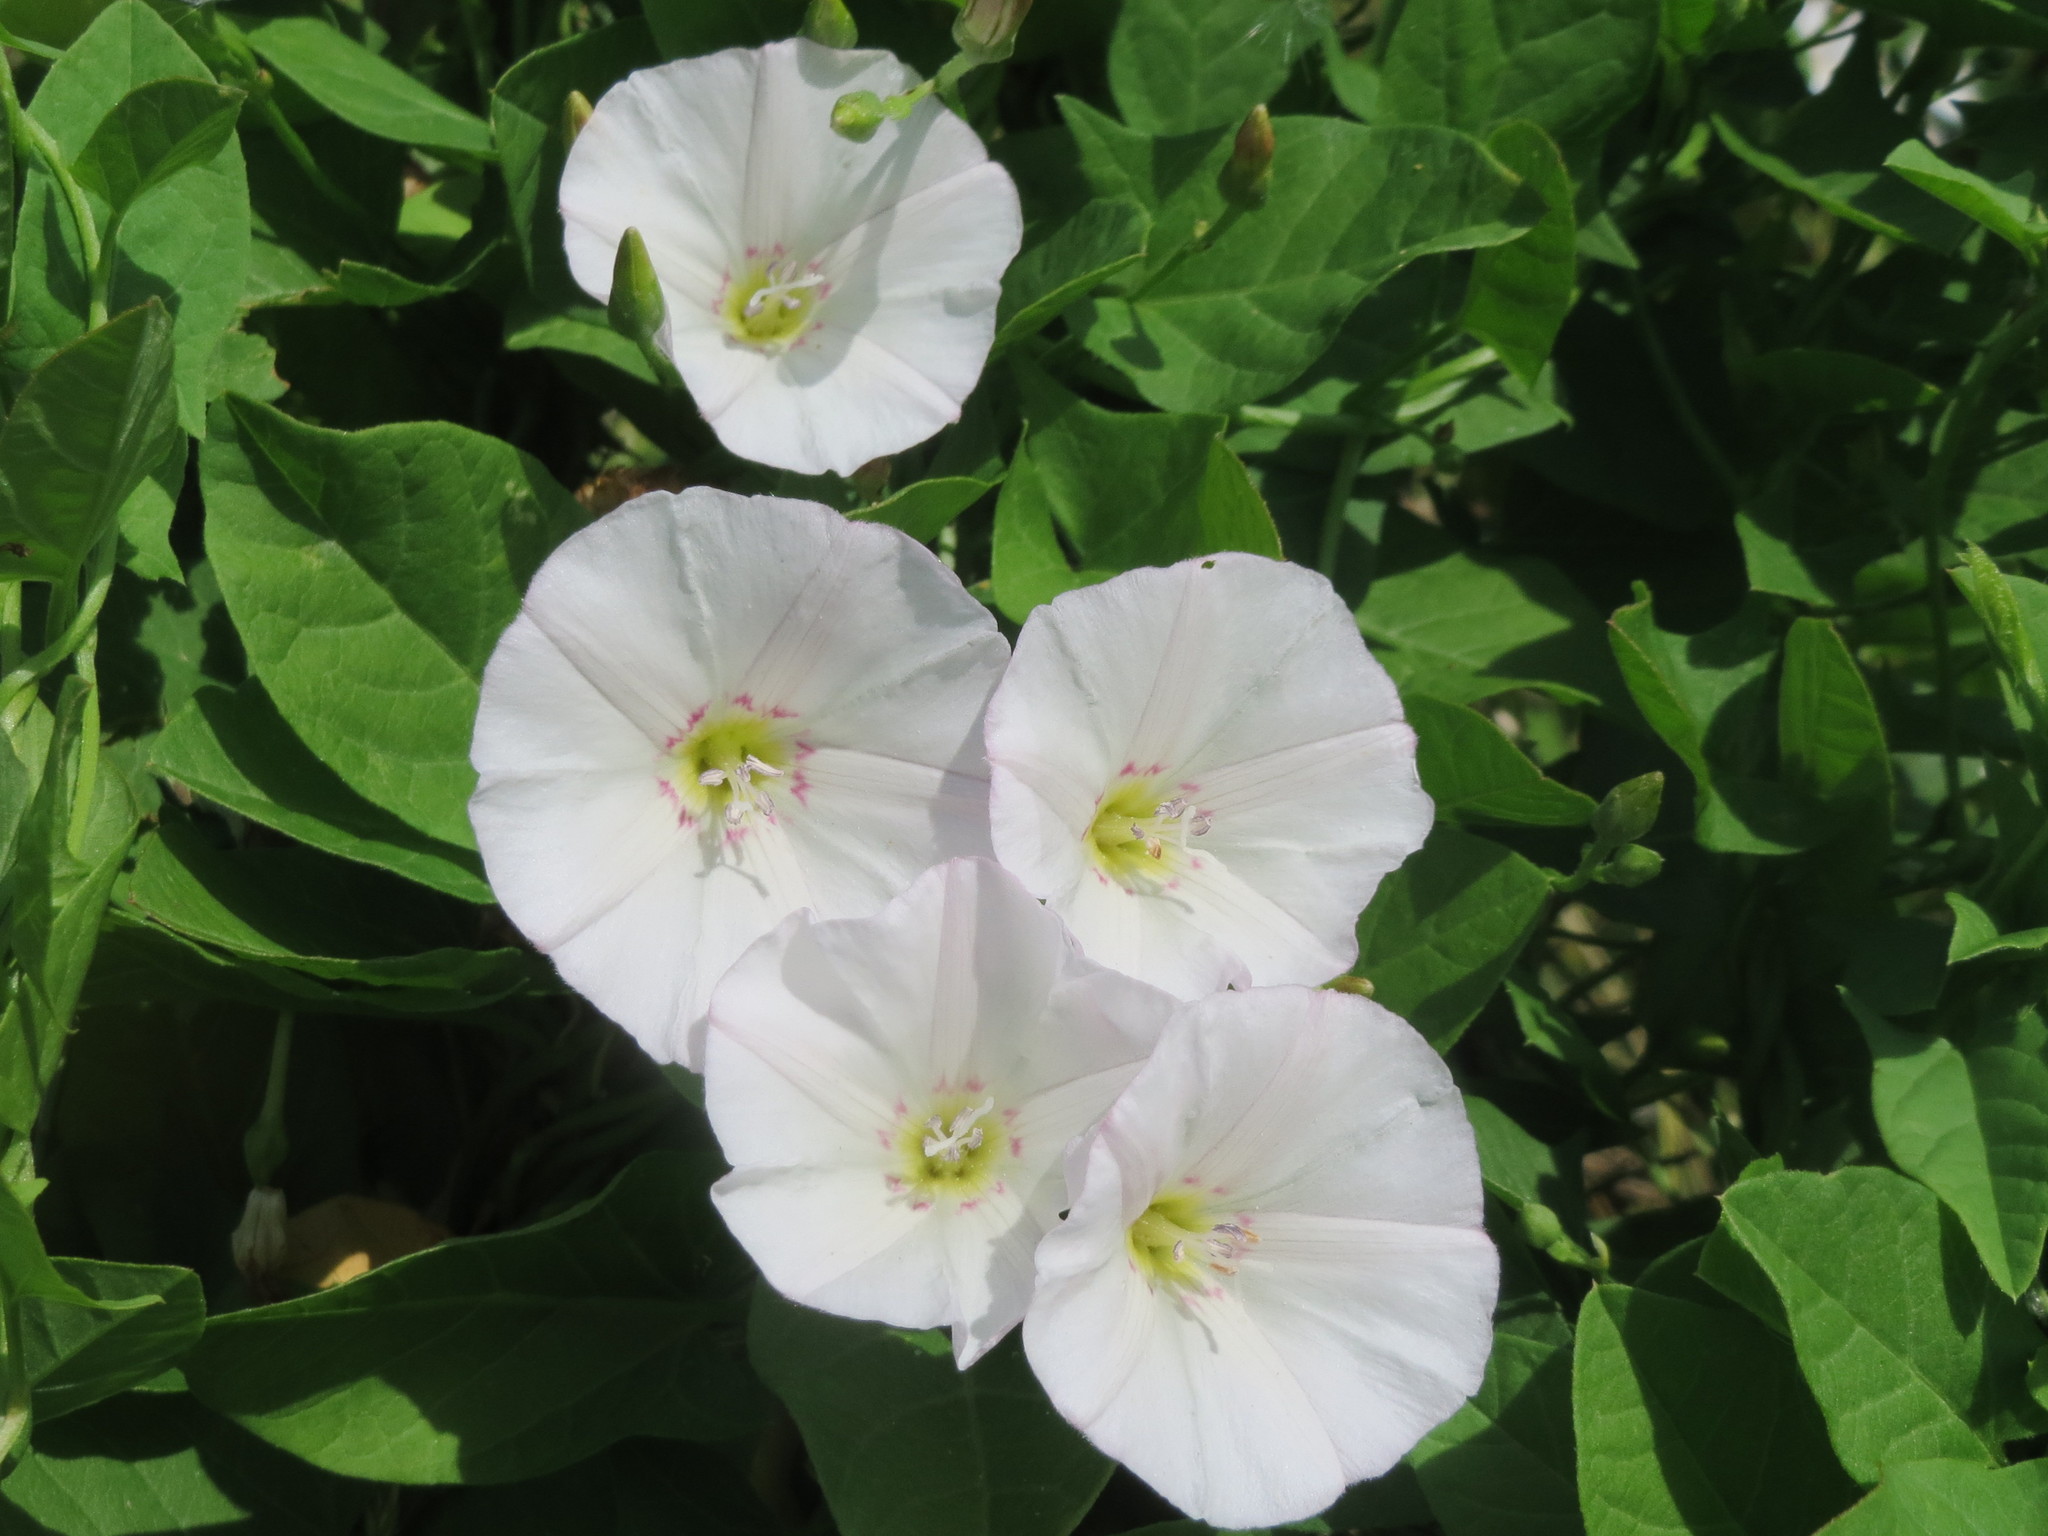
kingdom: Plantae
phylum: Tracheophyta
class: Magnoliopsida
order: Solanales
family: Convolvulaceae
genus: Convolvulus
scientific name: Convolvulus arvensis
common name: Field bindweed
